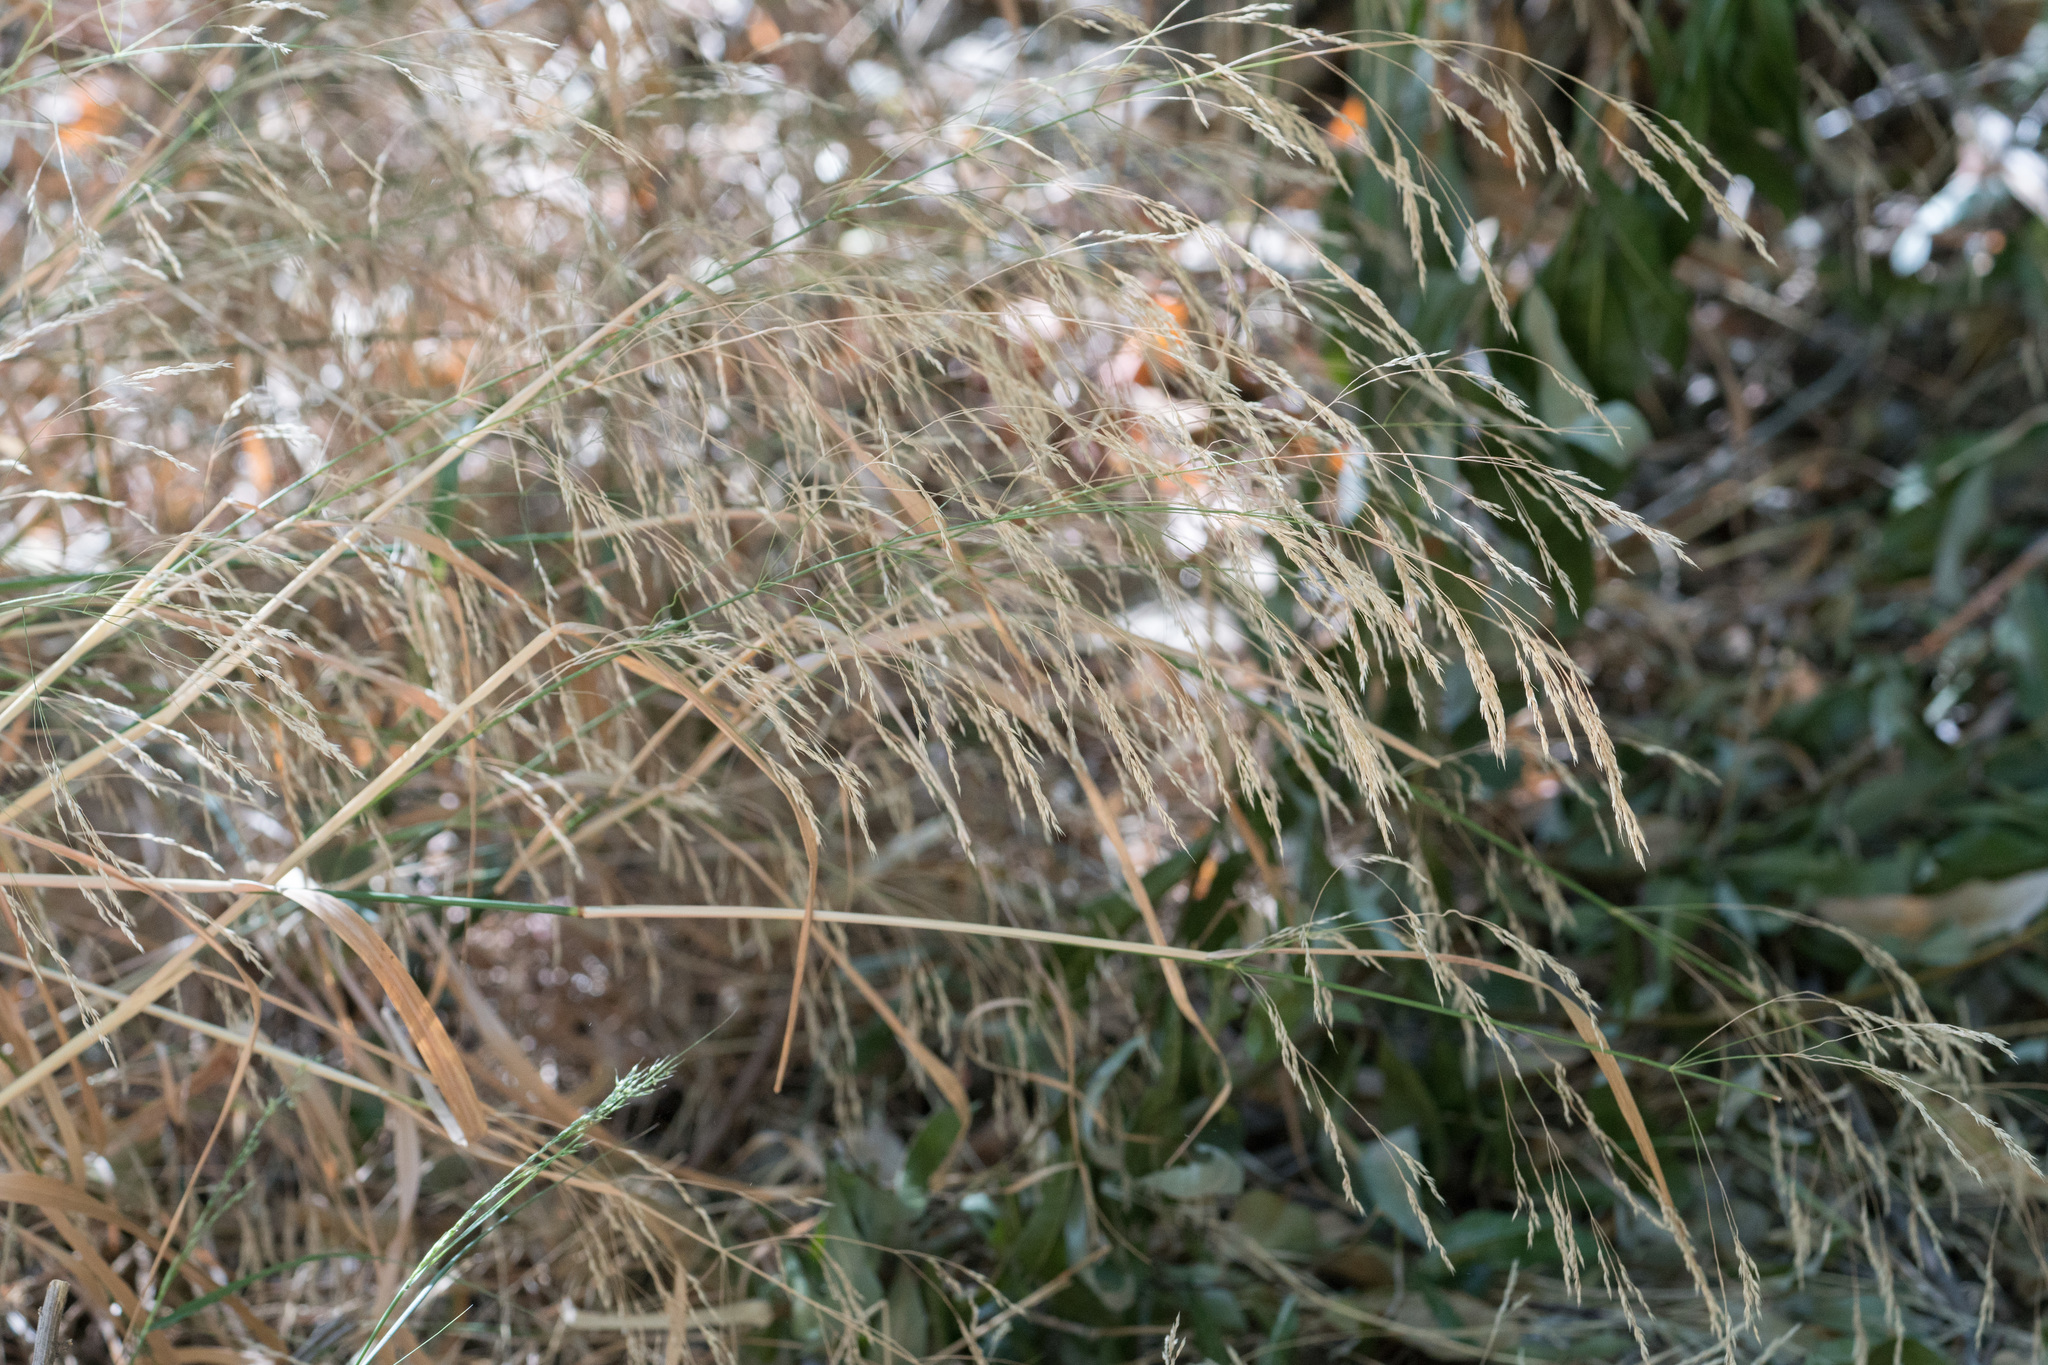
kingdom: Plantae
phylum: Tracheophyta
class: Liliopsida
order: Poales
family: Poaceae
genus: Oloptum
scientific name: Oloptum miliaceum
